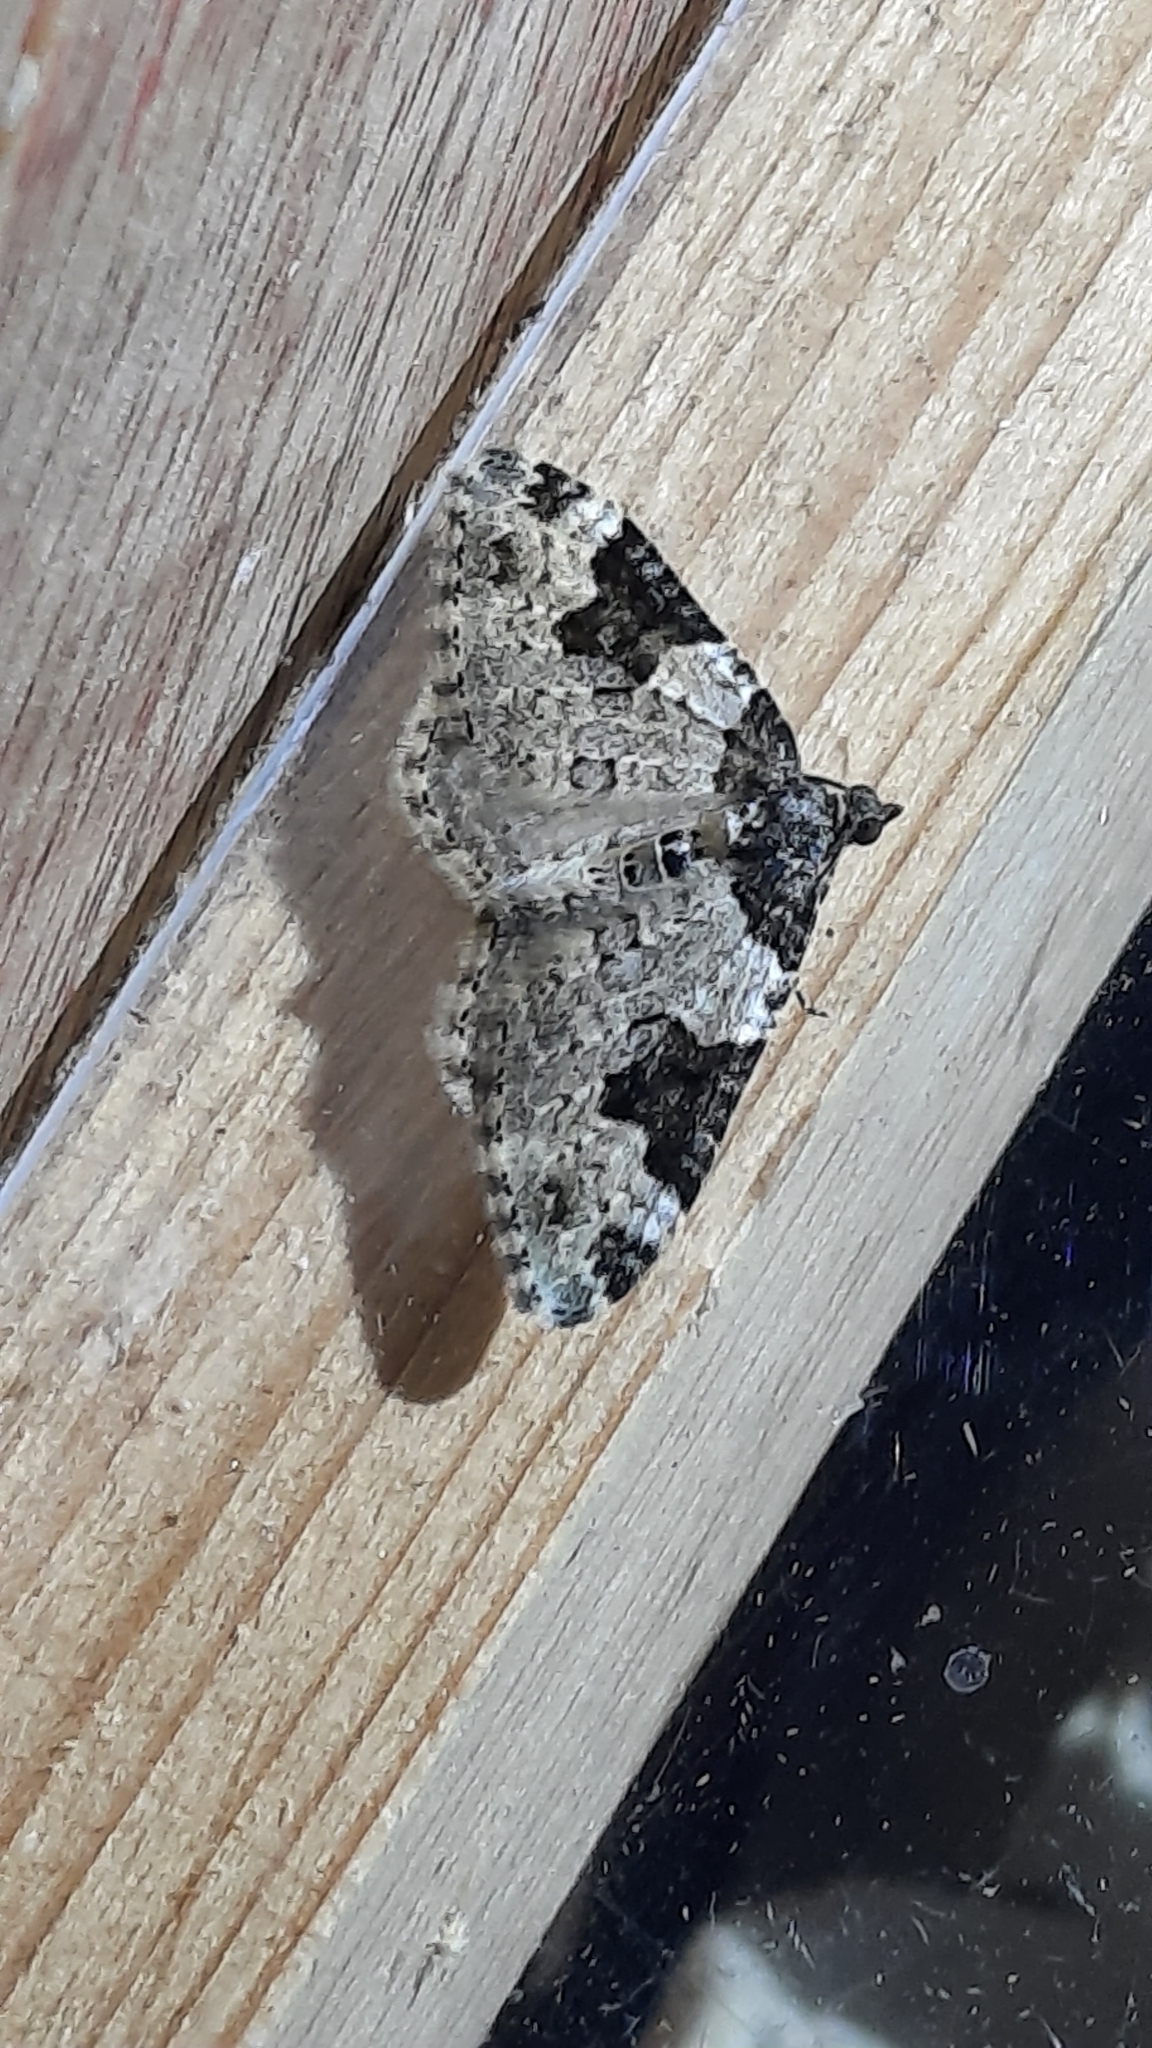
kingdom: Animalia
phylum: Arthropoda
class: Insecta
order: Lepidoptera
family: Geometridae
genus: Xanthorhoe
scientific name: Xanthorhoe fluctuata
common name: Garden carpet
